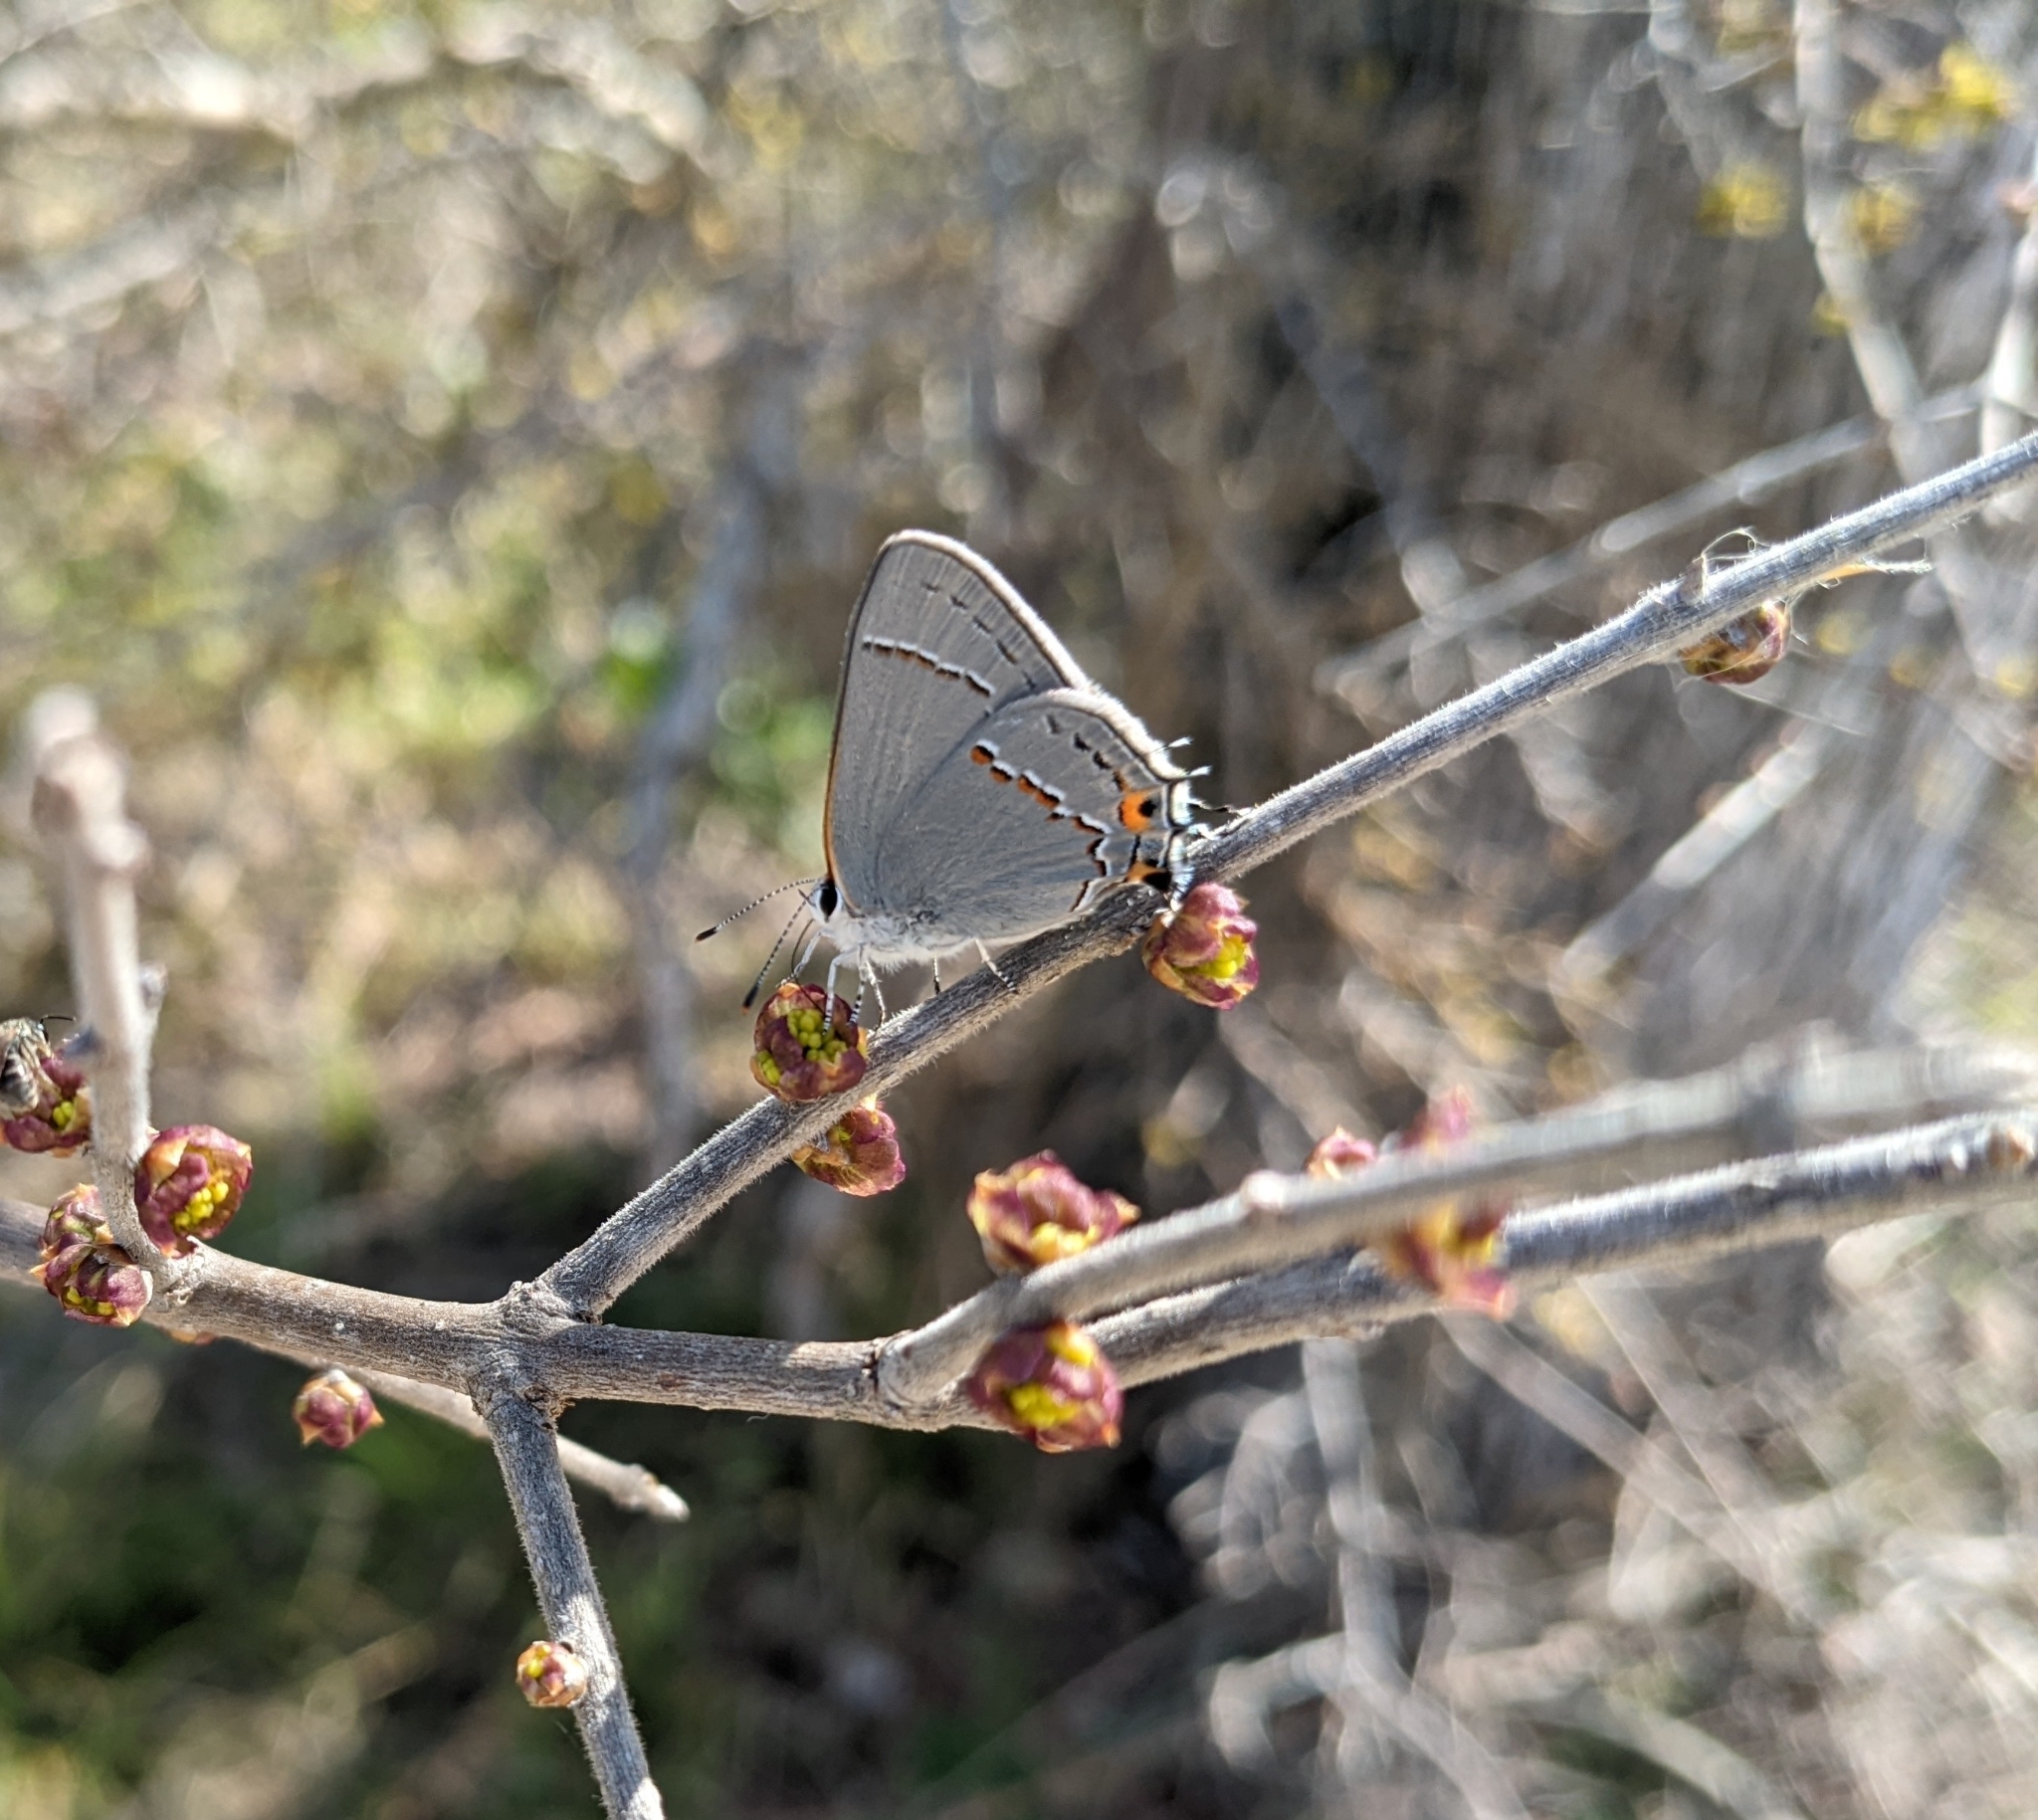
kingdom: Animalia
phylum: Arthropoda
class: Insecta
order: Lepidoptera
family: Lycaenidae
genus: Strymon
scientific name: Strymon melinus
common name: Gray hairstreak
